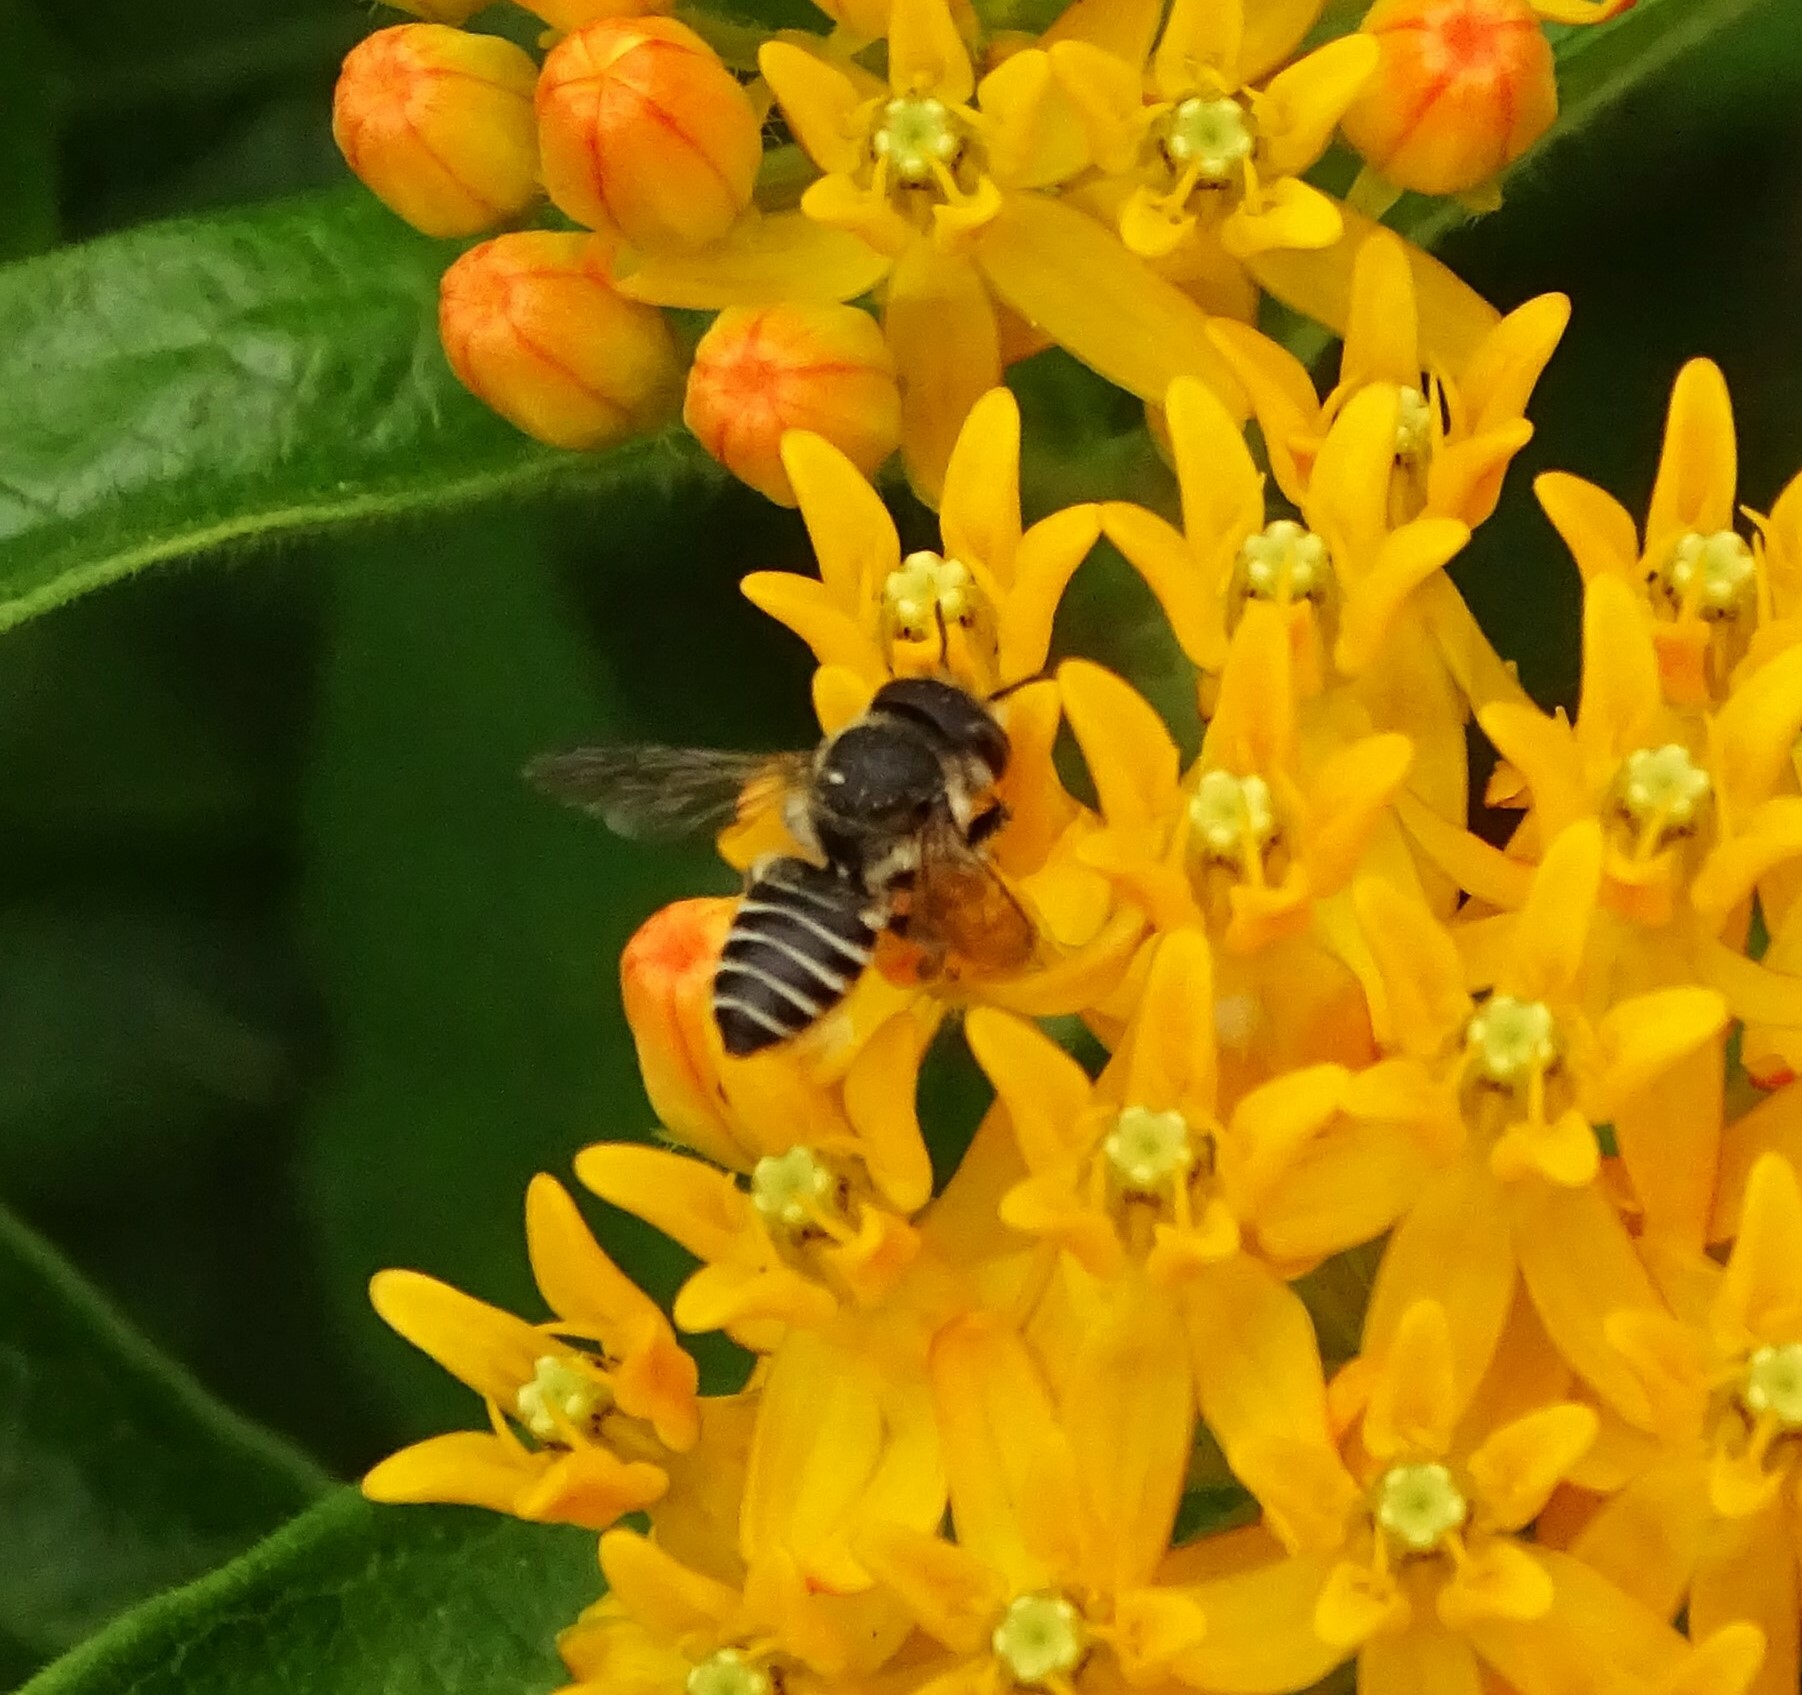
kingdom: Animalia
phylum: Arthropoda
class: Insecta
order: Hymenoptera
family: Megachilidae
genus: Megachile
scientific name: Megachile rotundata
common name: Alfalfa leafcutting bee
